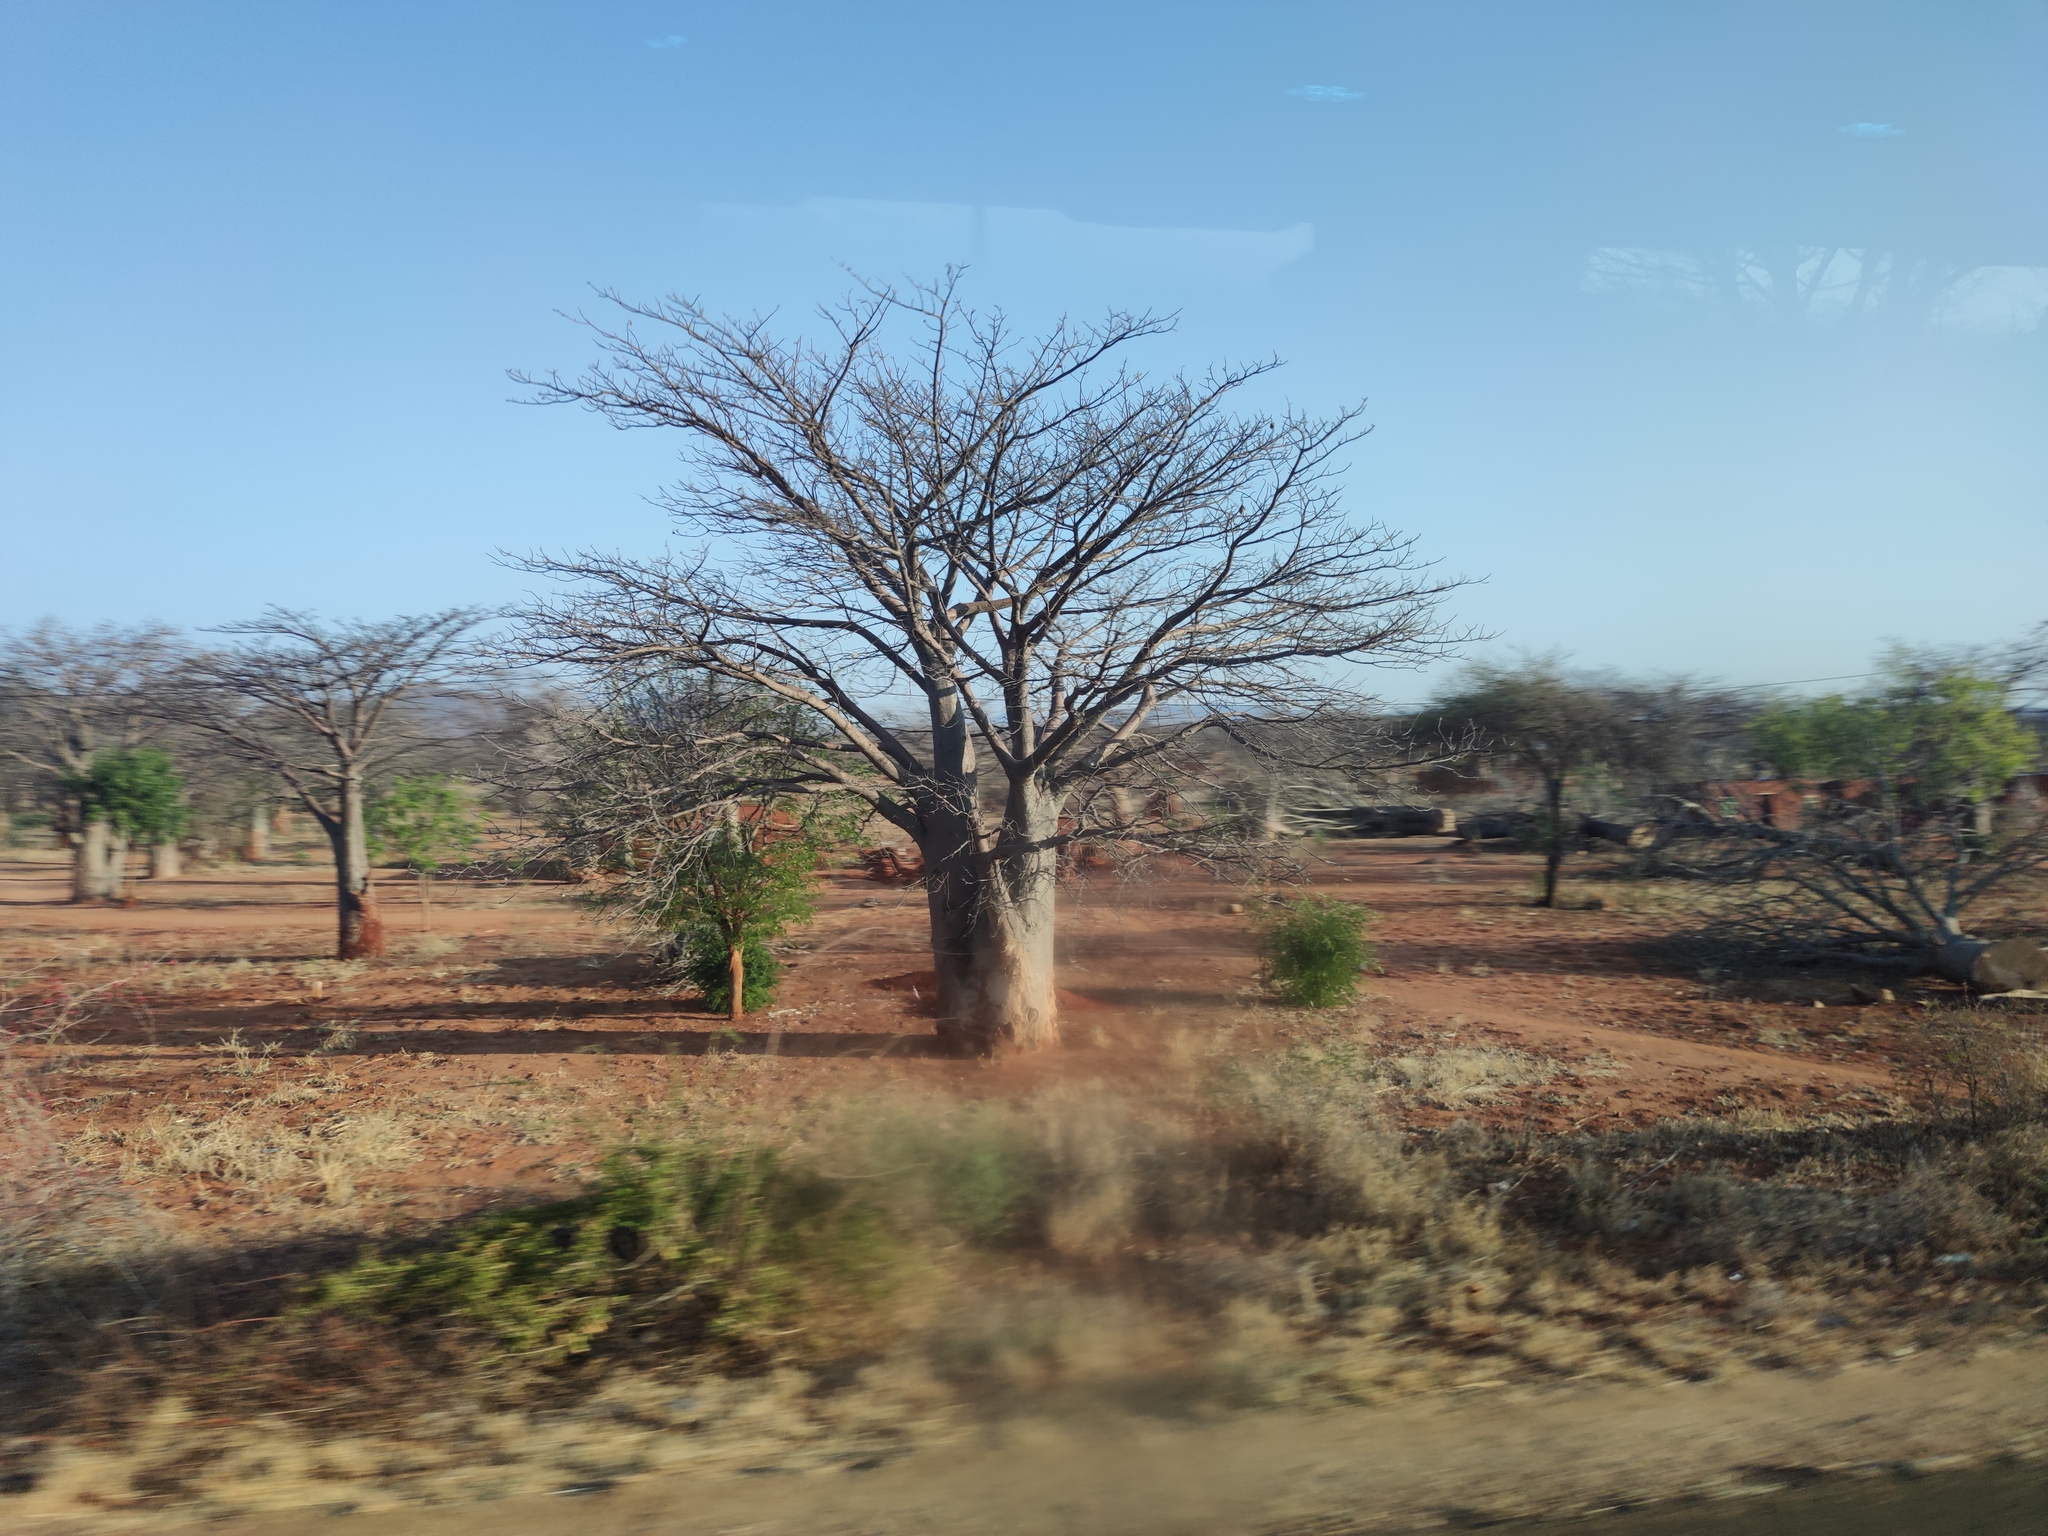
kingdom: Plantae
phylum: Tracheophyta
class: Magnoliopsida
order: Malvales
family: Malvaceae
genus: Adansonia
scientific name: Adansonia digitata
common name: Dead-rat-tree
